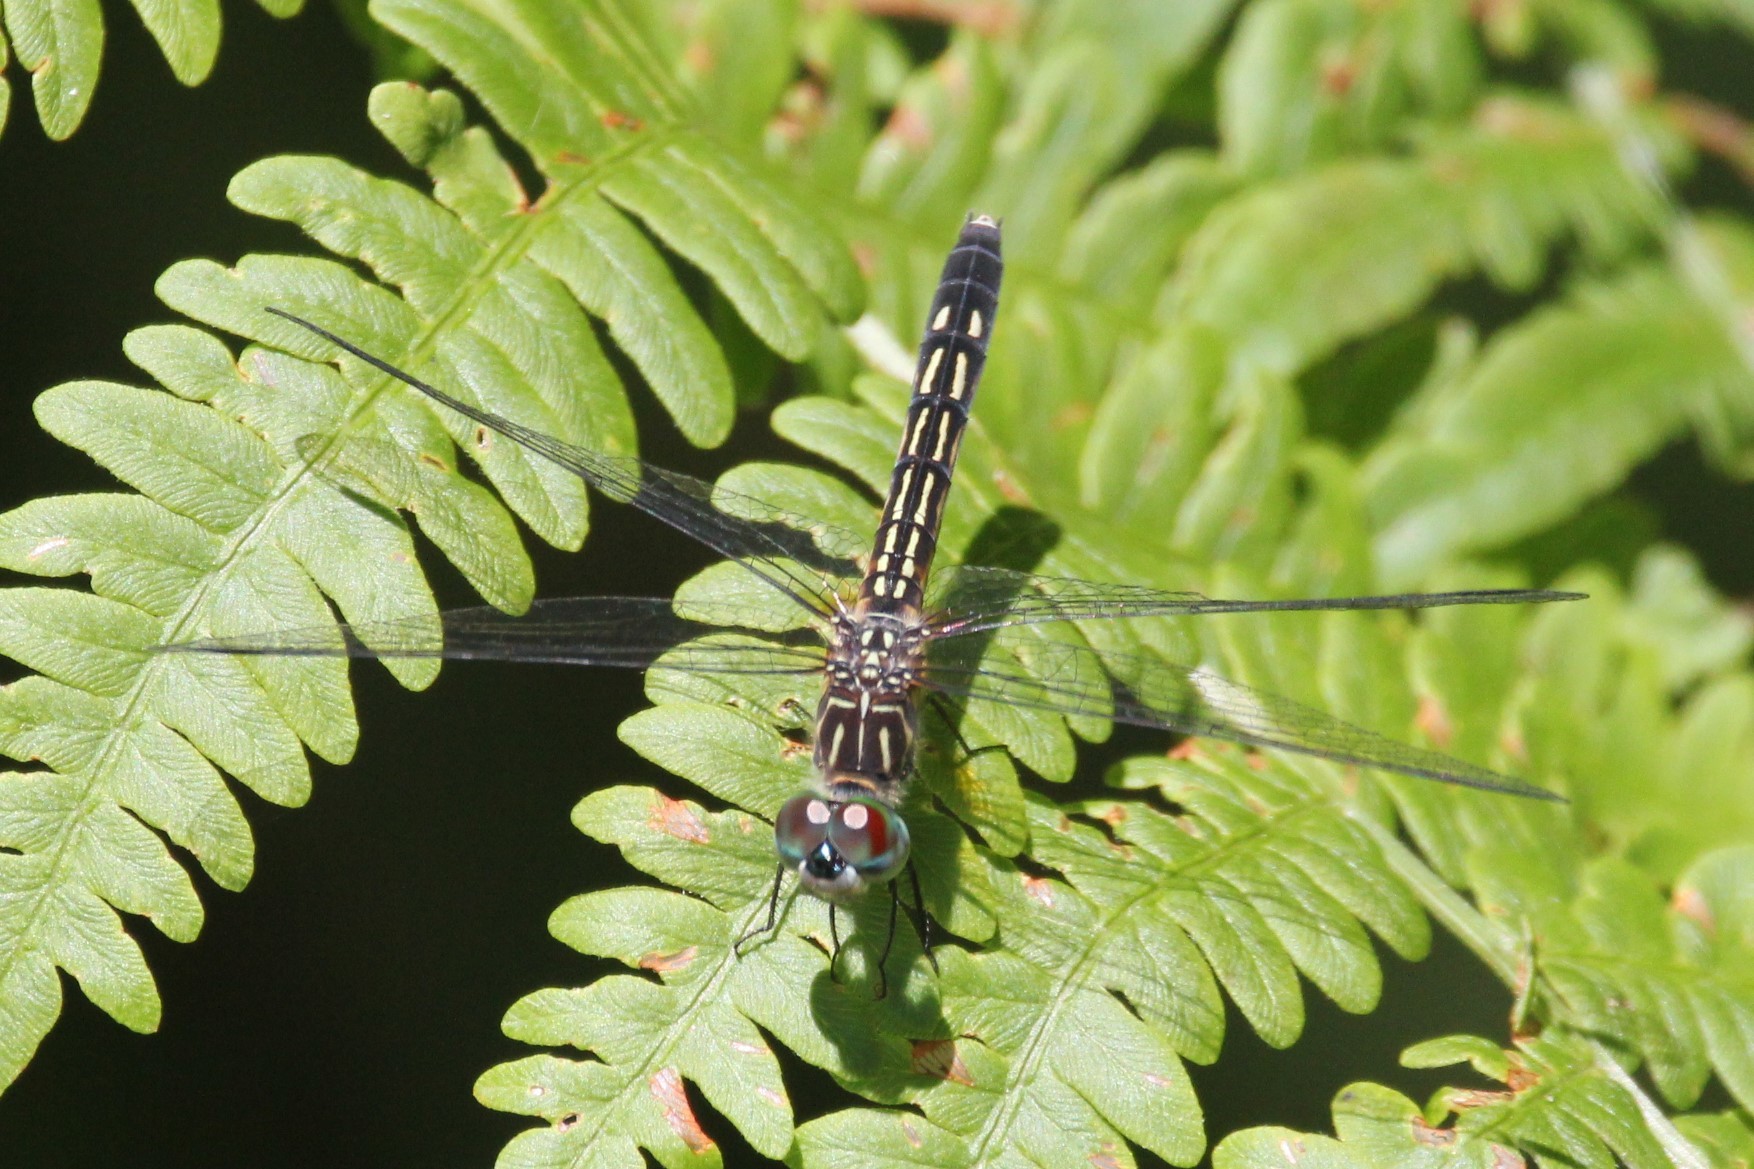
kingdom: Animalia
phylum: Arthropoda
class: Insecta
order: Odonata
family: Libellulidae
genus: Pachydiplax
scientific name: Pachydiplax longipennis
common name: Blue dasher
